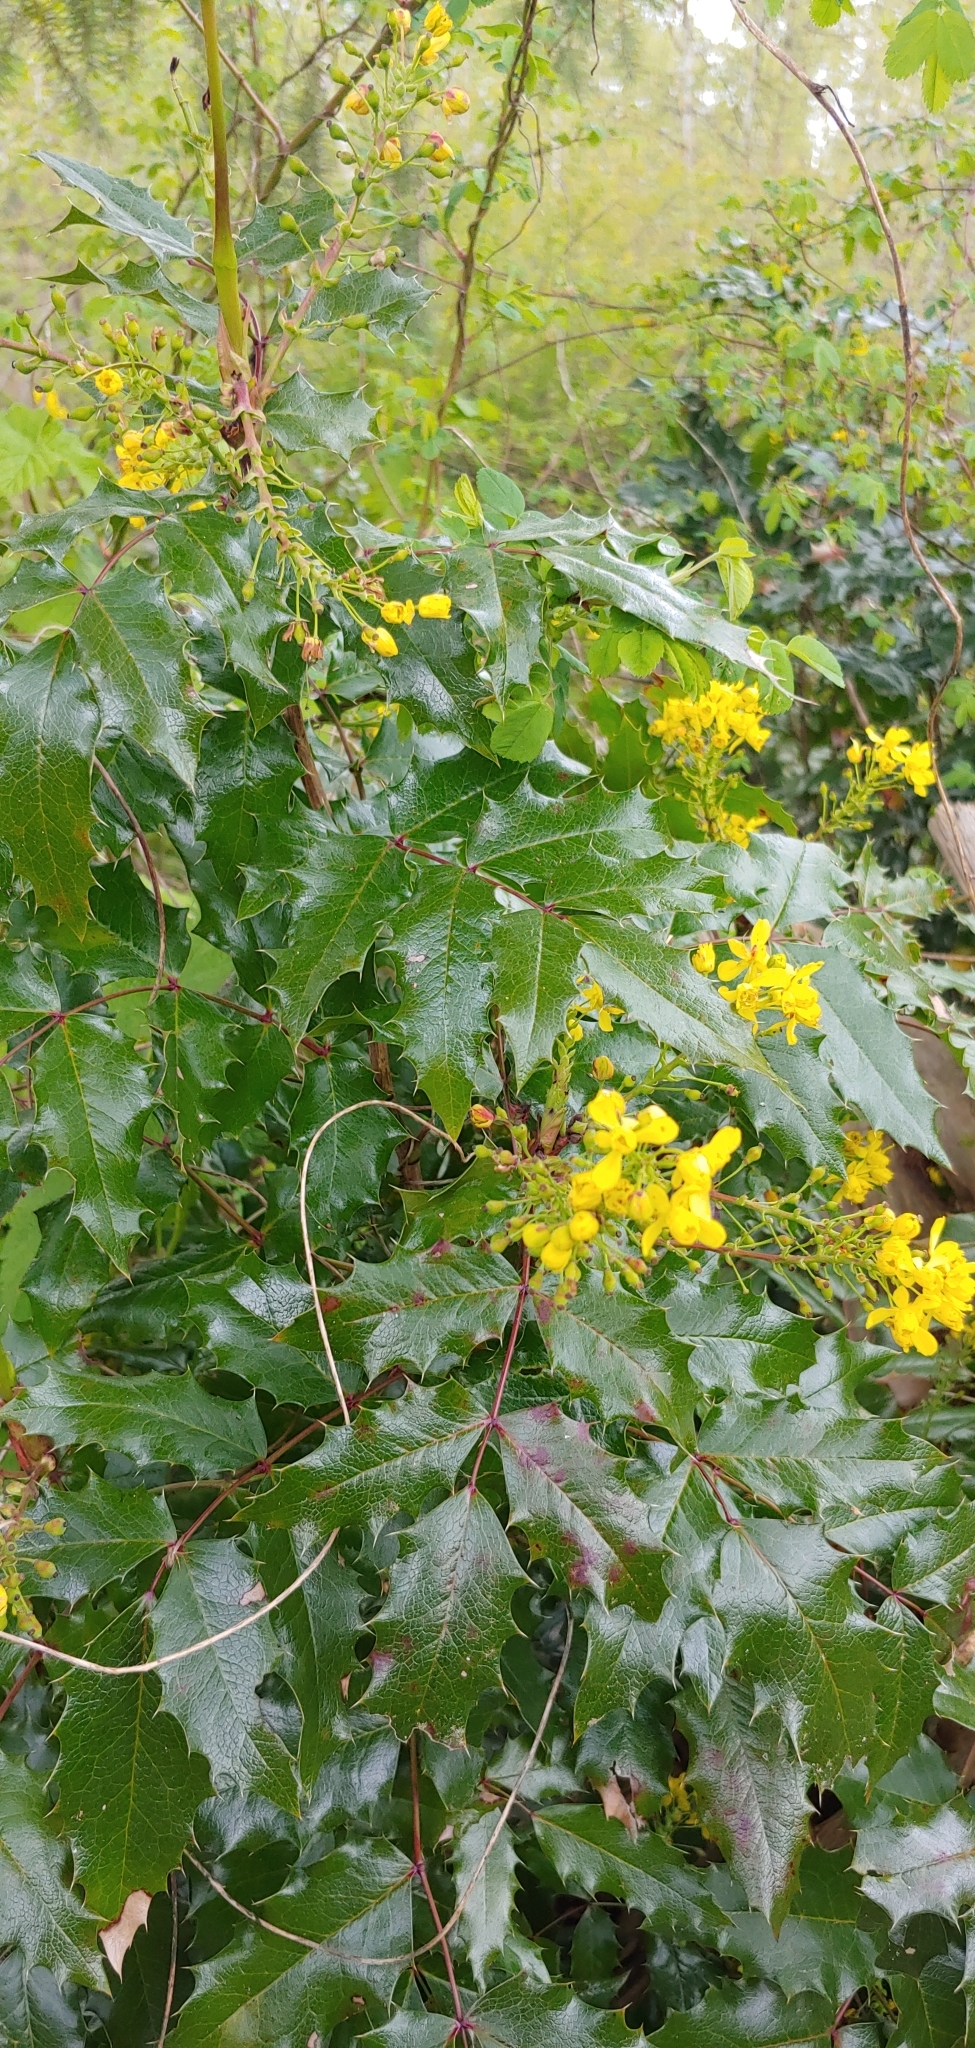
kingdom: Plantae
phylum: Tracheophyta
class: Magnoliopsida
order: Ranunculales
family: Berberidaceae
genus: Mahonia
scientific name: Mahonia aquifolium
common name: Oregon-grape
